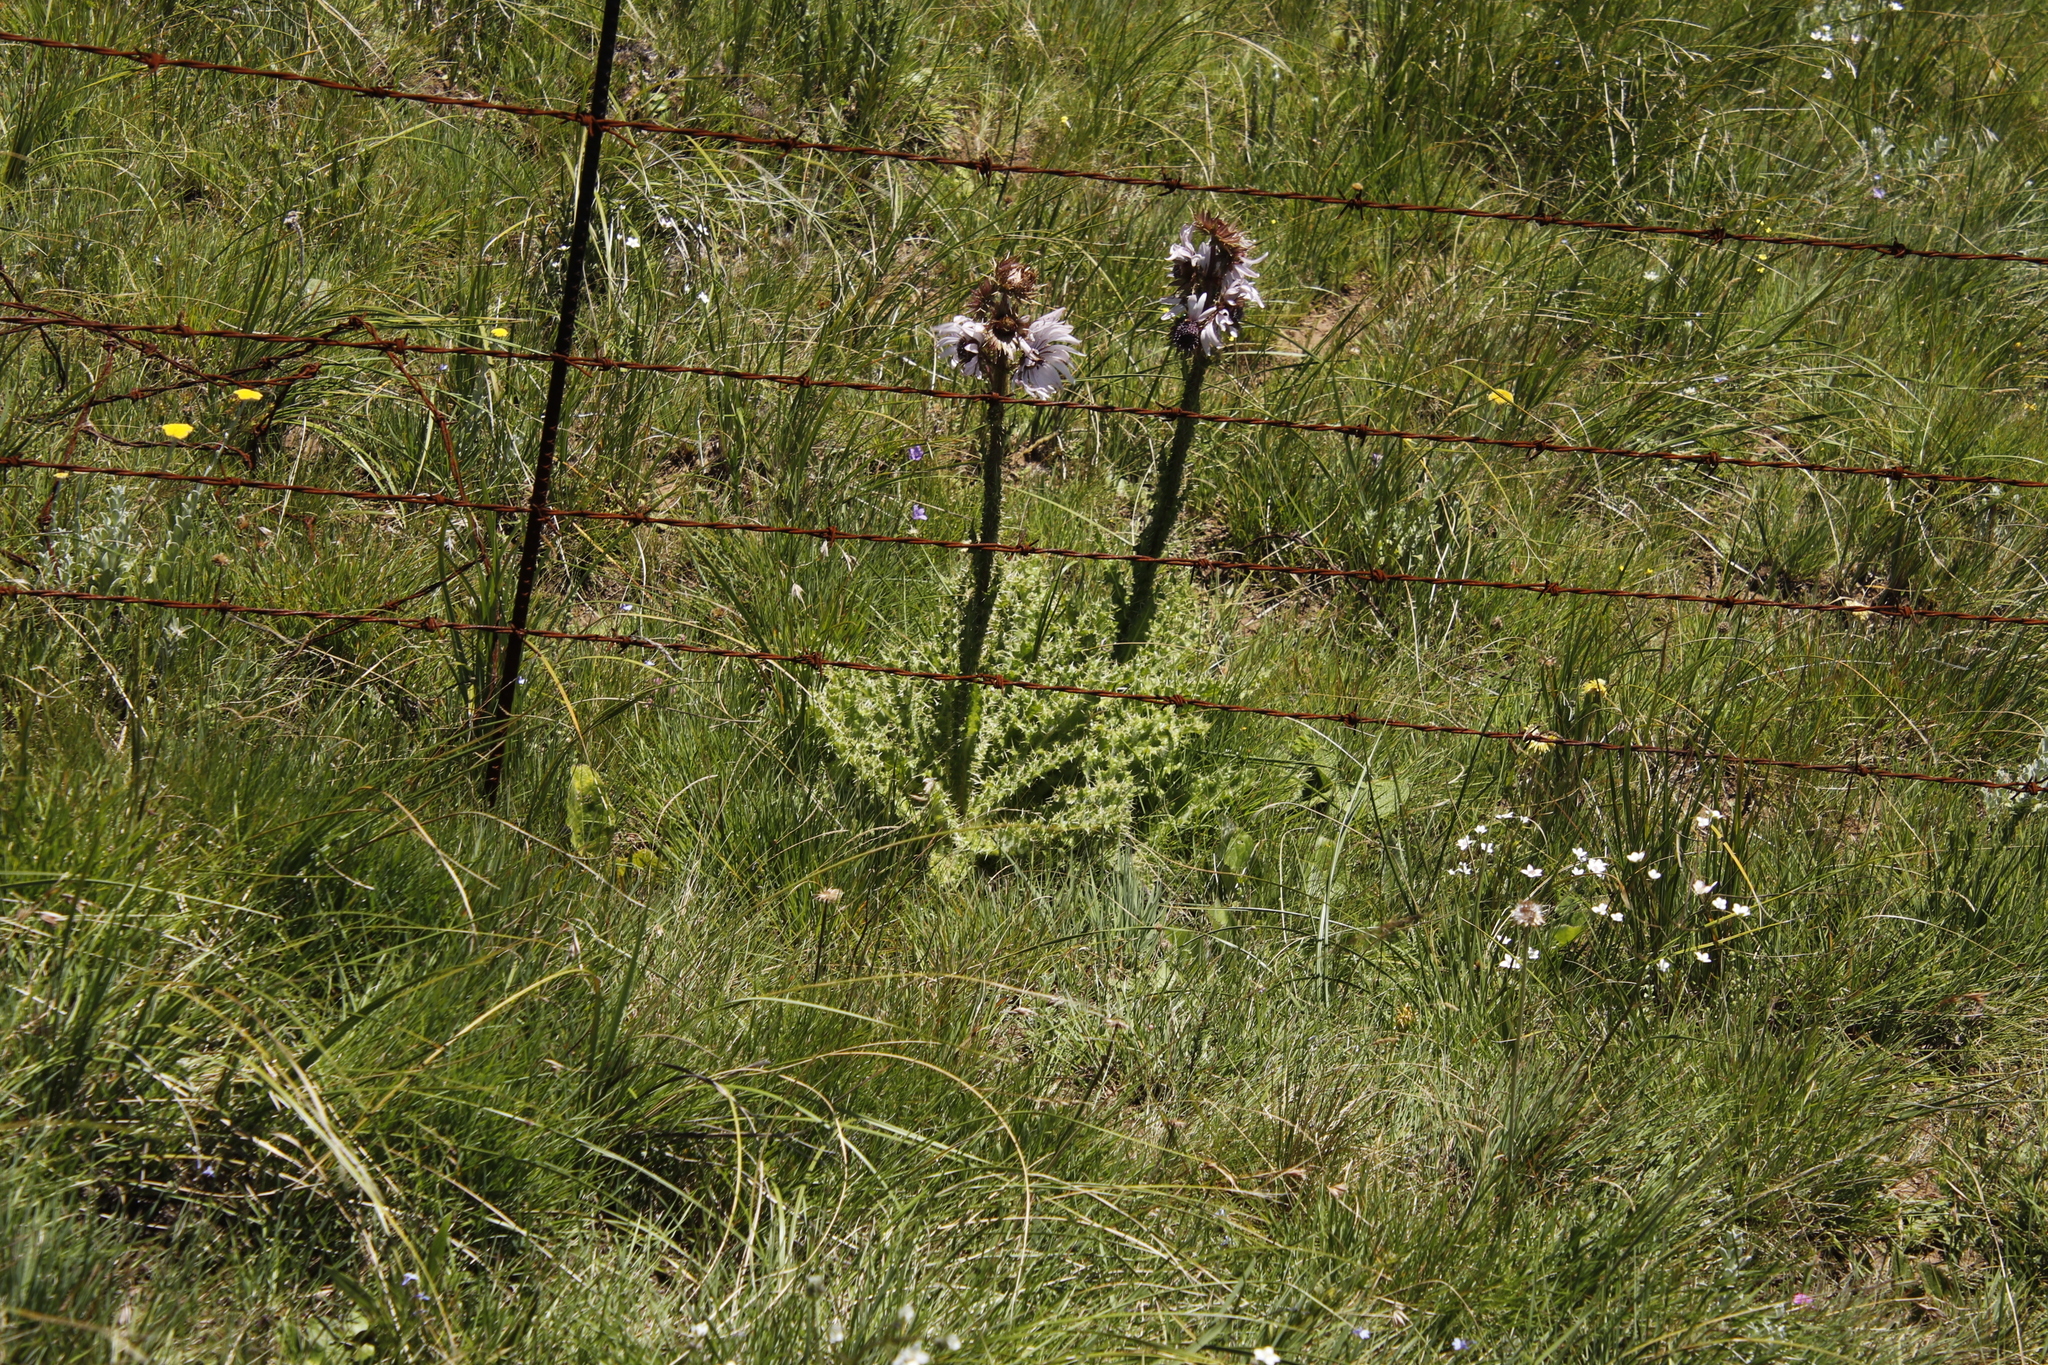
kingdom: Plantae
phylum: Tracheophyta
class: Magnoliopsida
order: Asterales
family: Asteraceae
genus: Berkheya
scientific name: Berkheya purpurea
